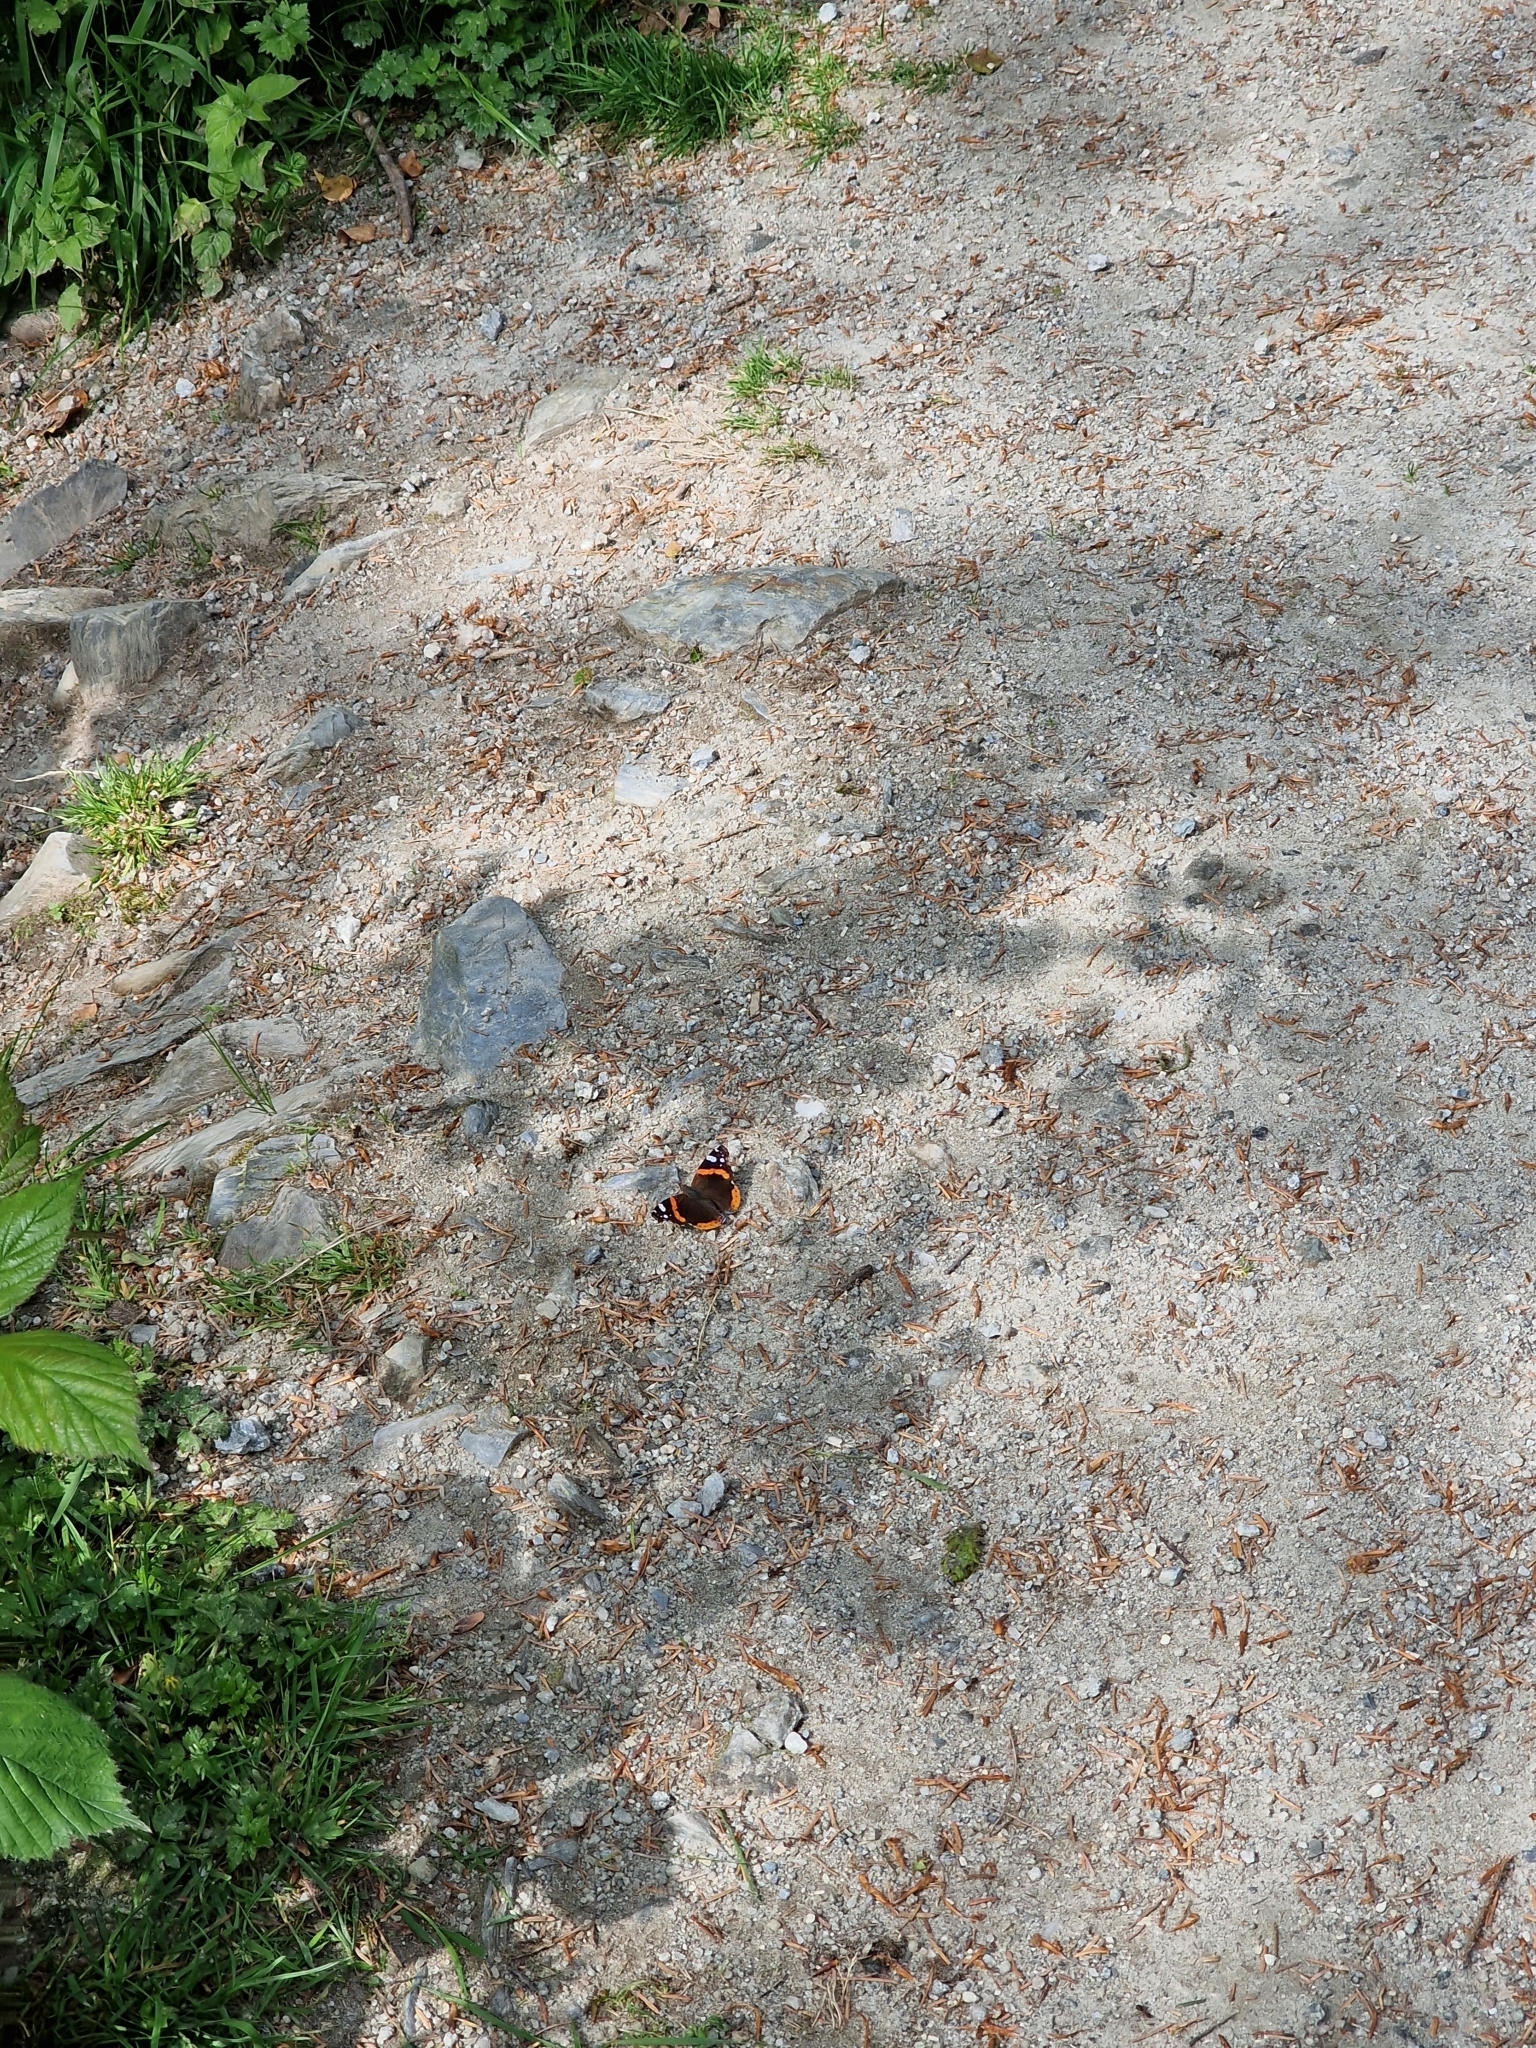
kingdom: Animalia
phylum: Arthropoda
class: Insecta
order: Lepidoptera
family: Nymphalidae
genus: Vanessa
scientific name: Vanessa atalanta
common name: Red admiral
